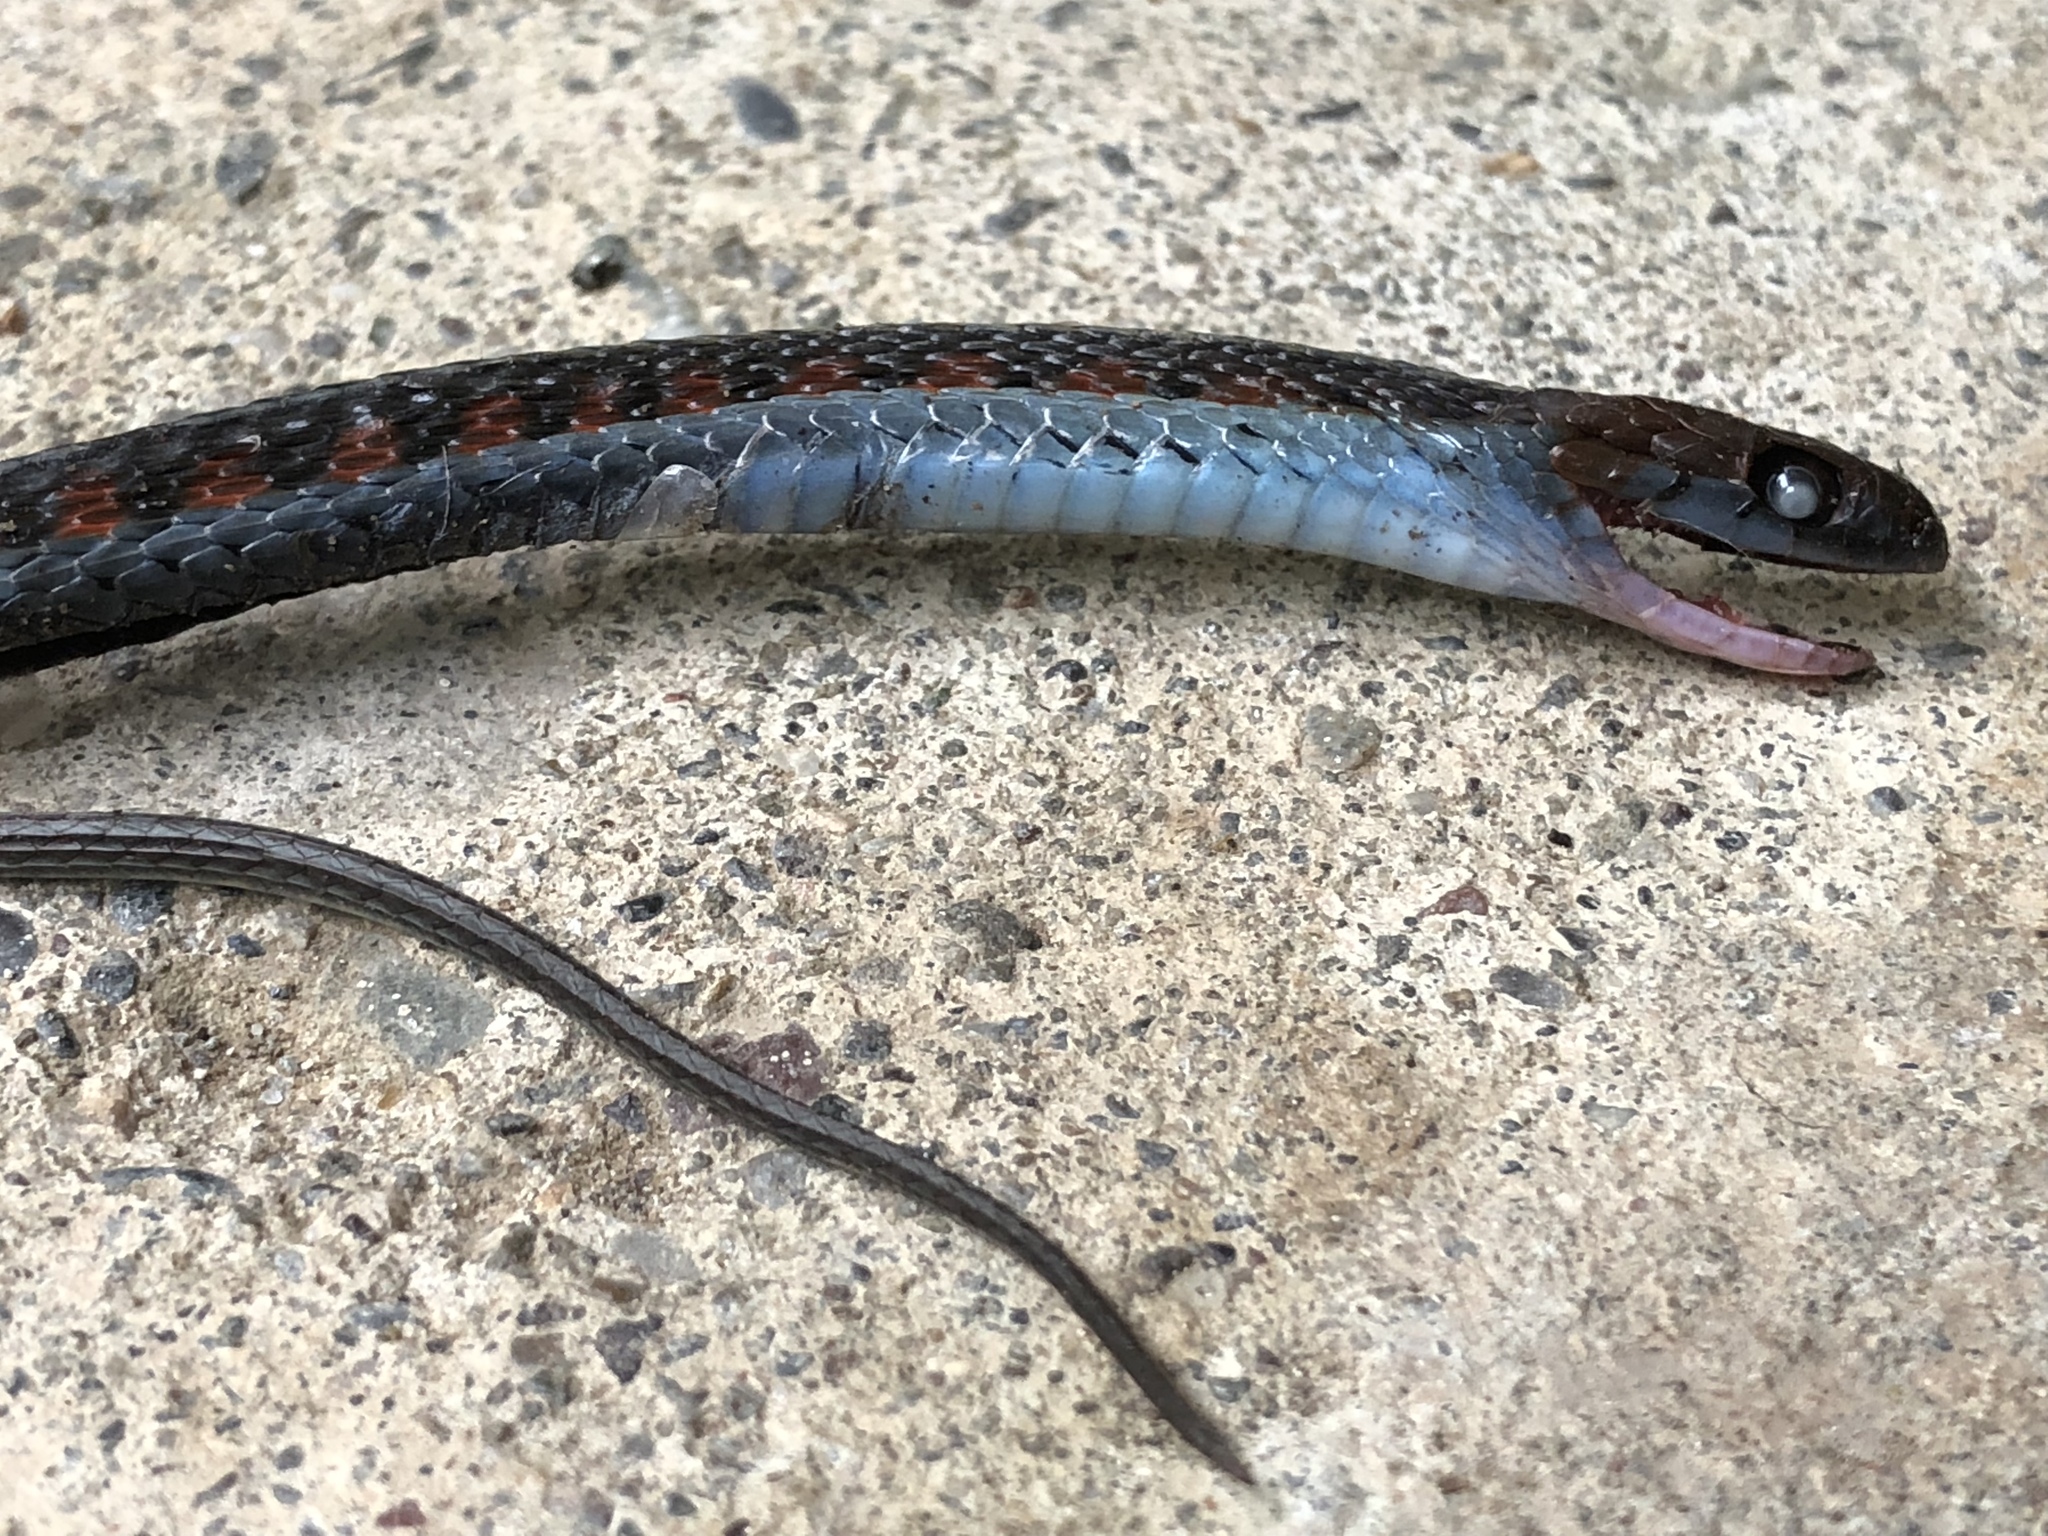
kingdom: Animalia
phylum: Chordata
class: Squamata
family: Colubridae
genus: Thamnophis
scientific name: Thamnophis sirtalis
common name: Common garter snake
